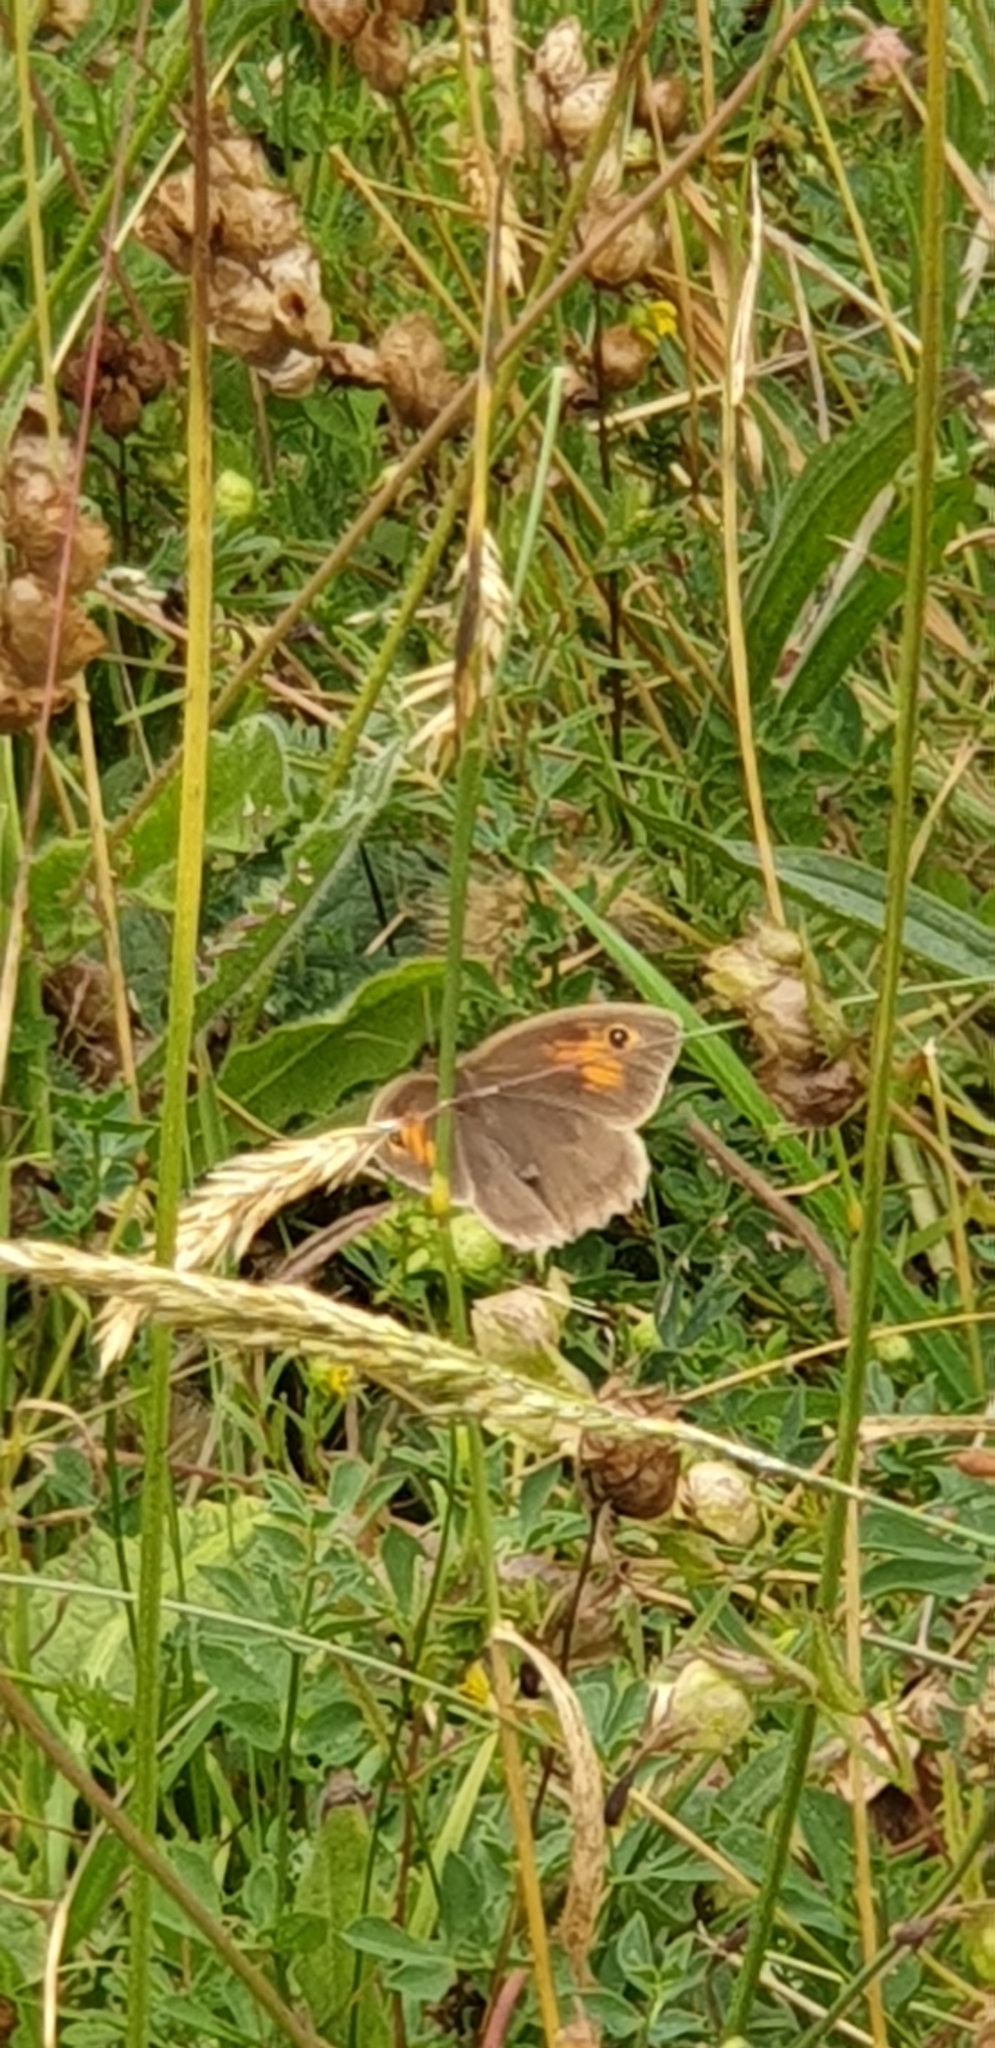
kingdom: Animalia
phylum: Arthropoda
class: Insecta
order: Lepidoptera
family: Nymphalidae
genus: Maniola
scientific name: Maniola jurtina
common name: Meadow brown
